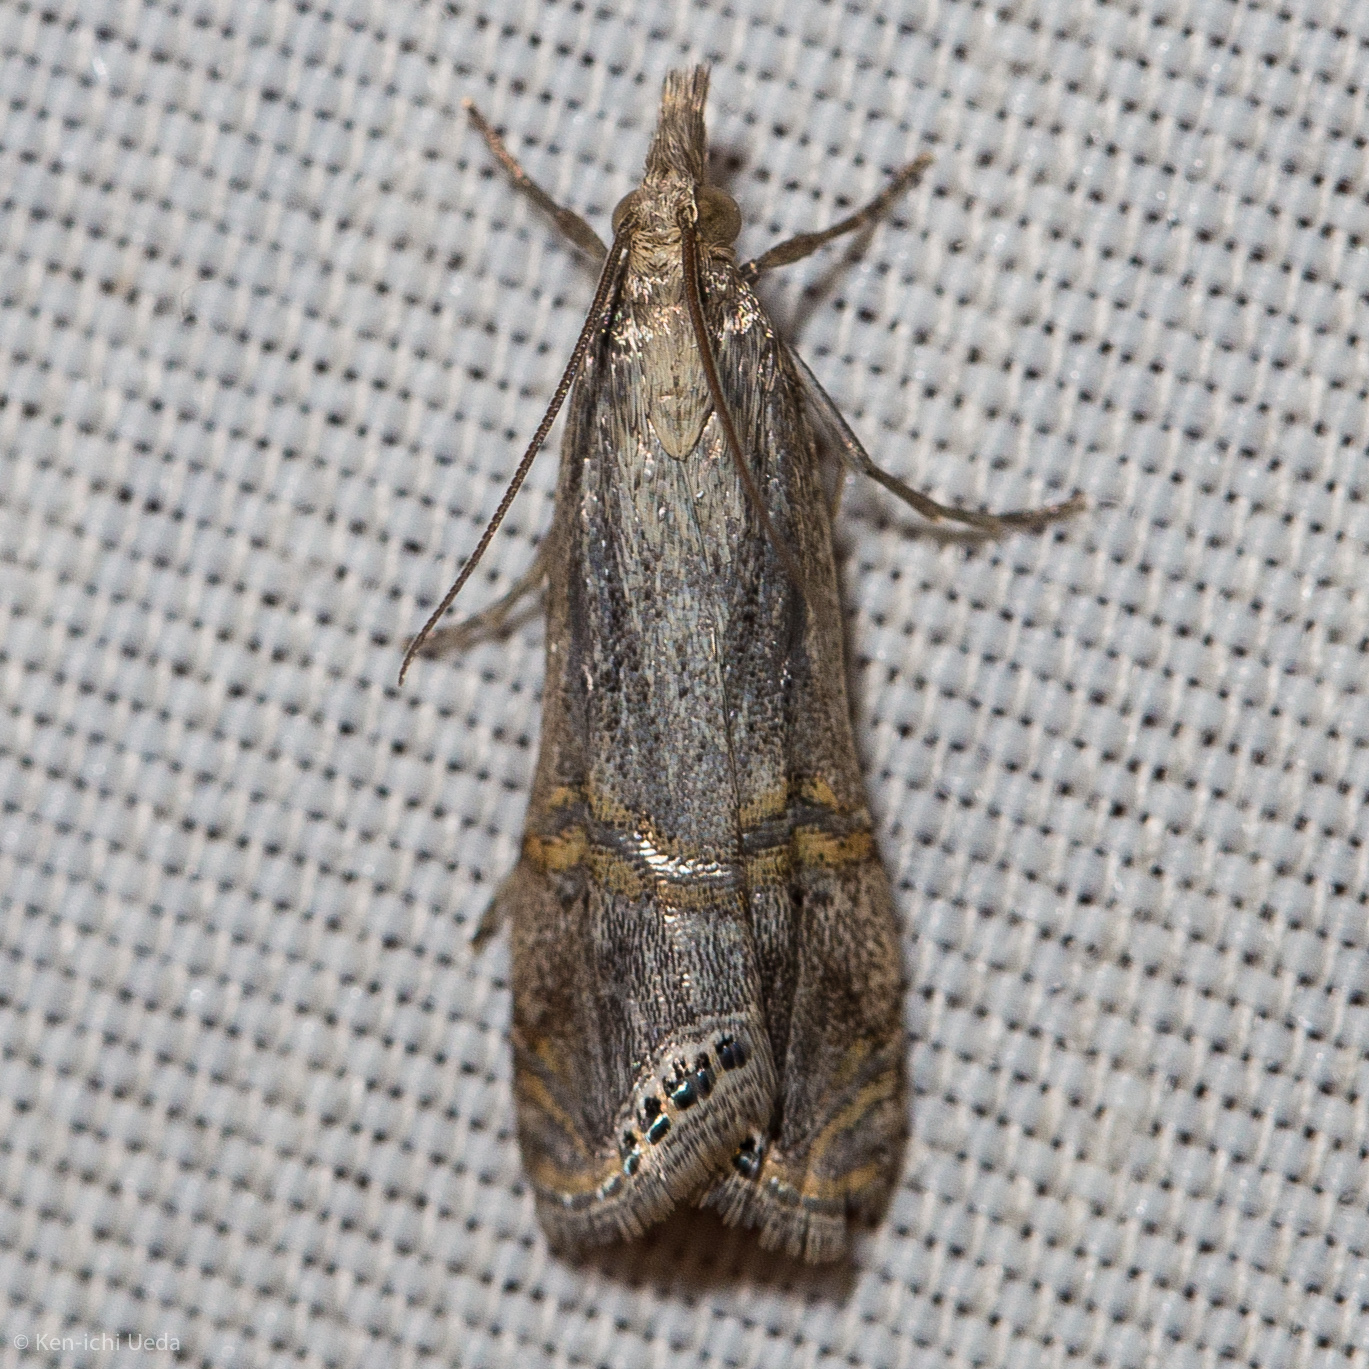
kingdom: Animalia
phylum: Arthropoda
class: Insecta
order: Lepidoptera
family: Crambidae
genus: Euchromius
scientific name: Euchromius ocellea
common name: Necklace veneer moth
